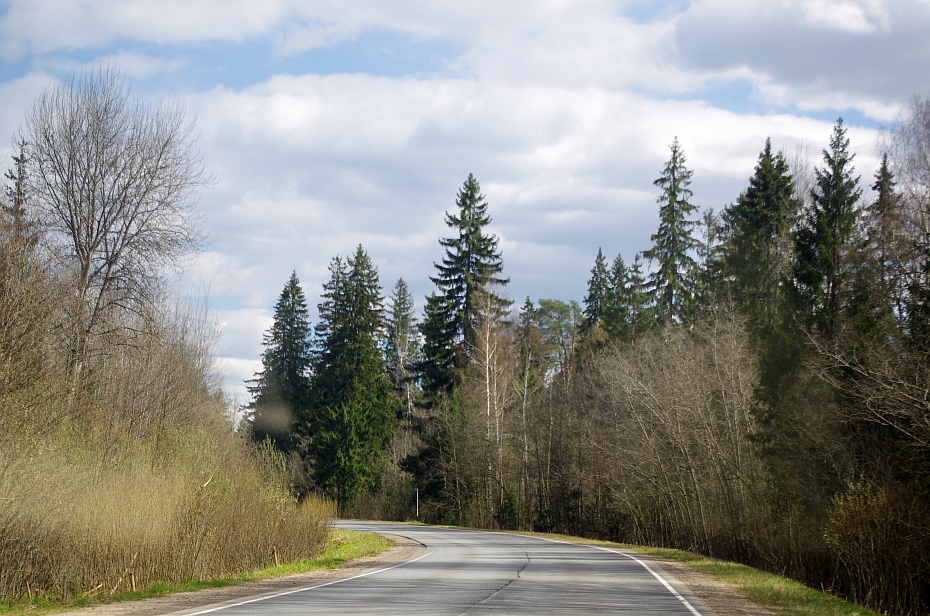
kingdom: Plantae
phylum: Tracheophyta
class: Pinopsida
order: Pinales
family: Pinaceae
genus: Picea
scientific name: Picea abies
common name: Norway spruce
